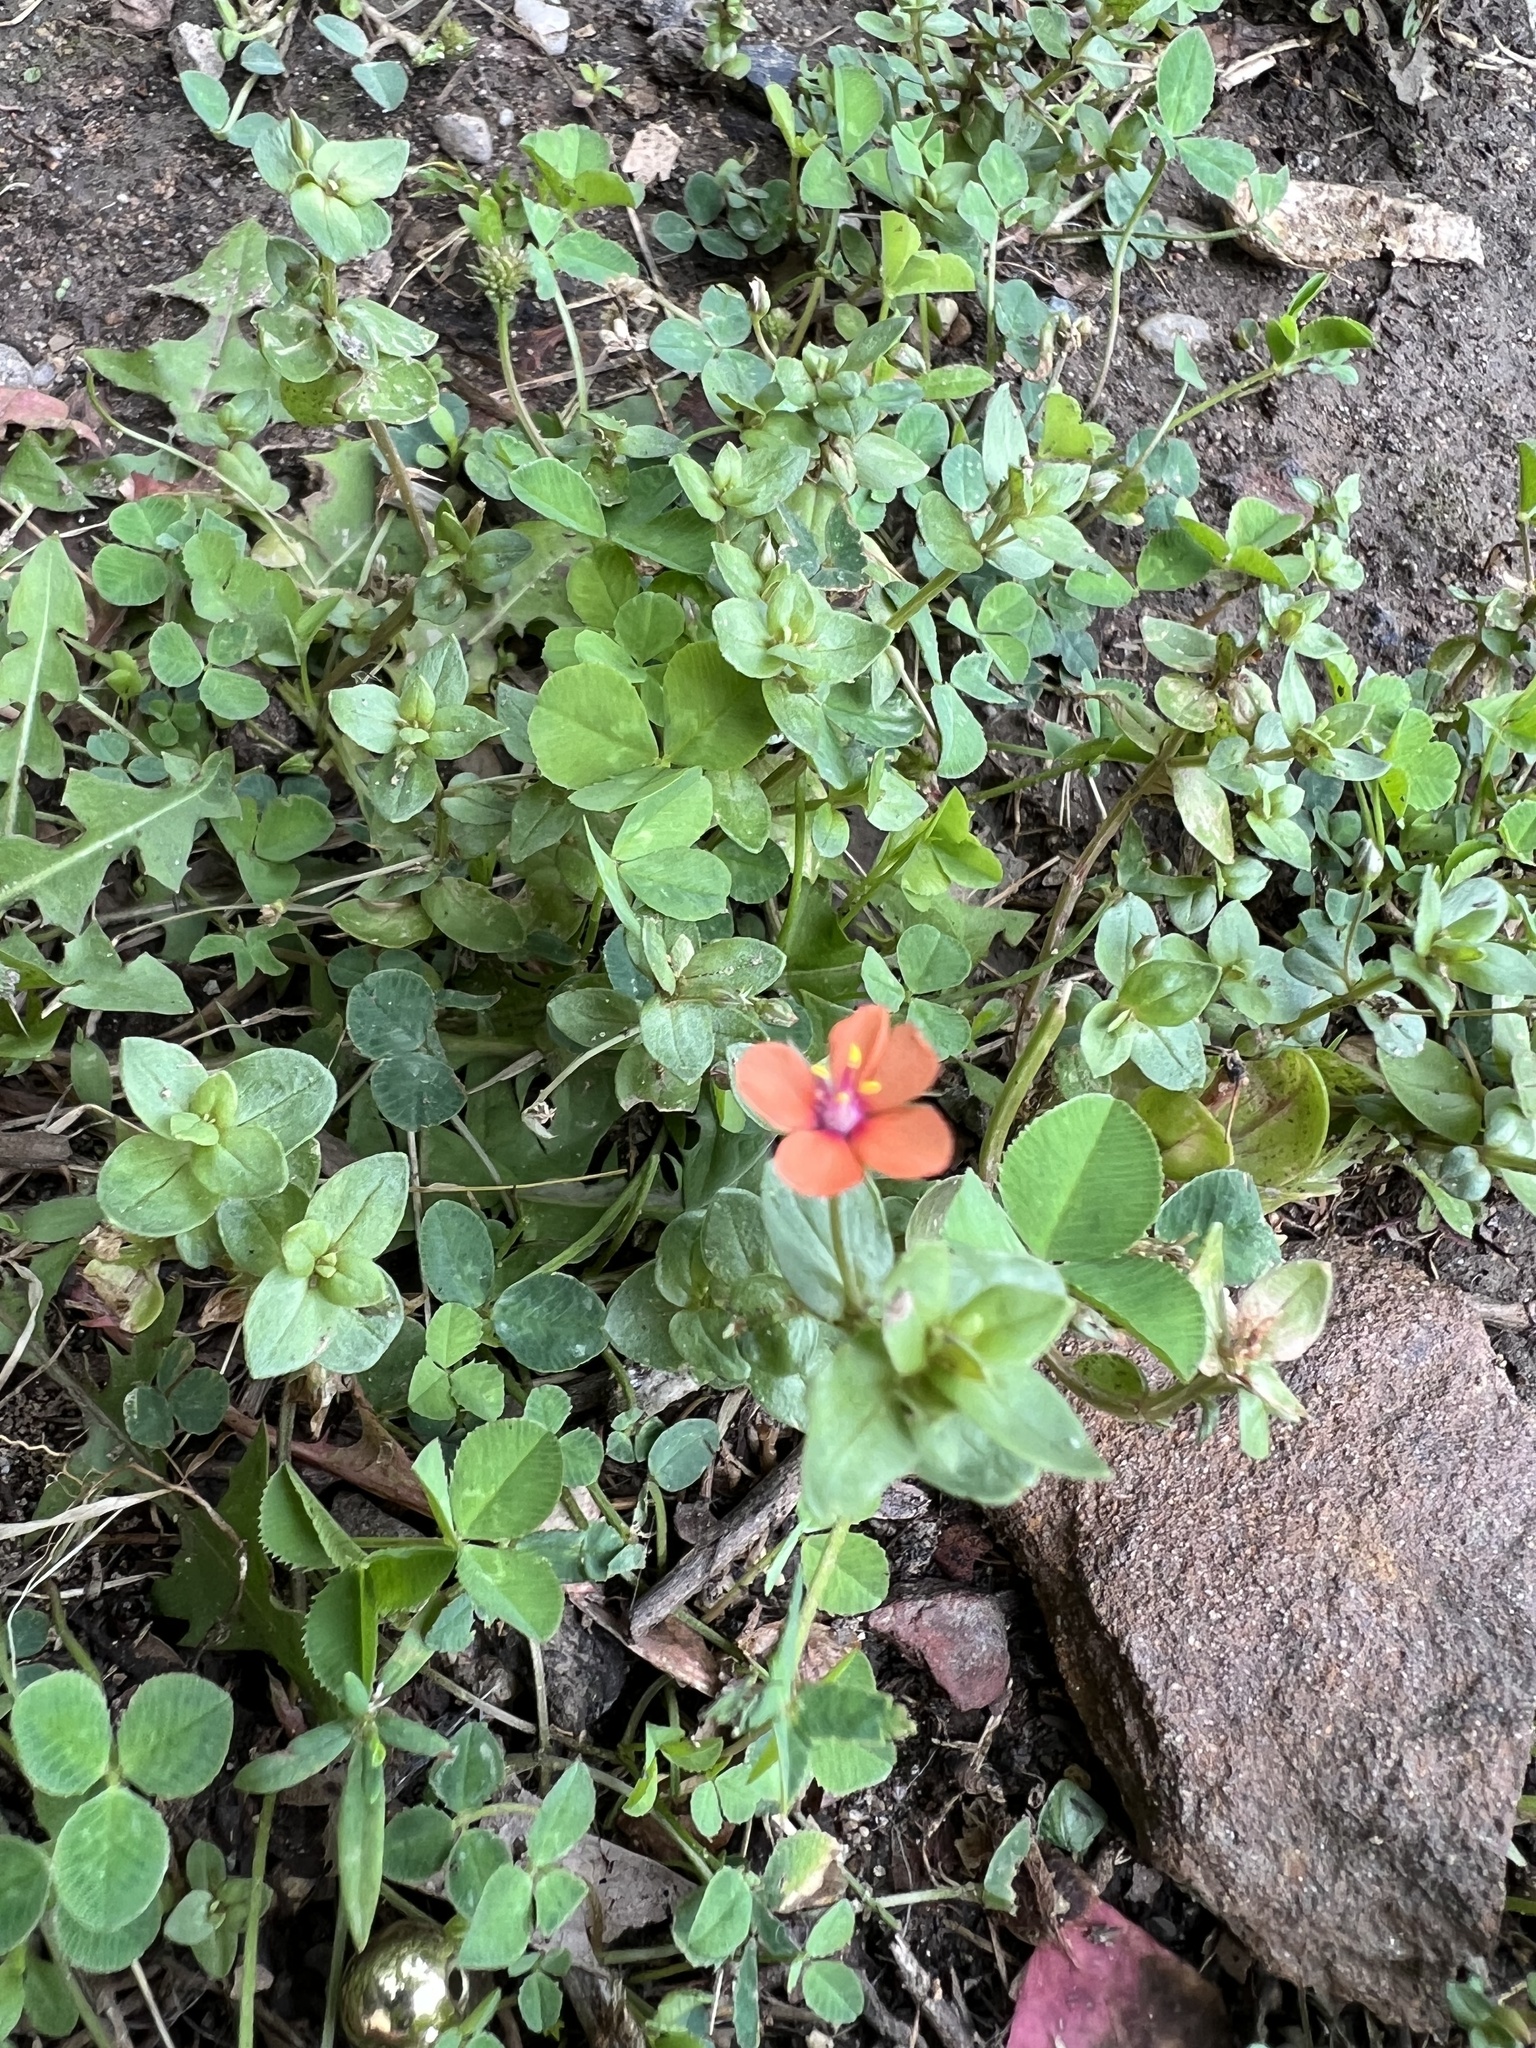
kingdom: Plantae
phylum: Tracheophyta
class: Magnoliopsida
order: Ericales
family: Primulaceae
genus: Lysimachia
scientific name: Lysimachia arvensis
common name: Scarlet pimpernel
